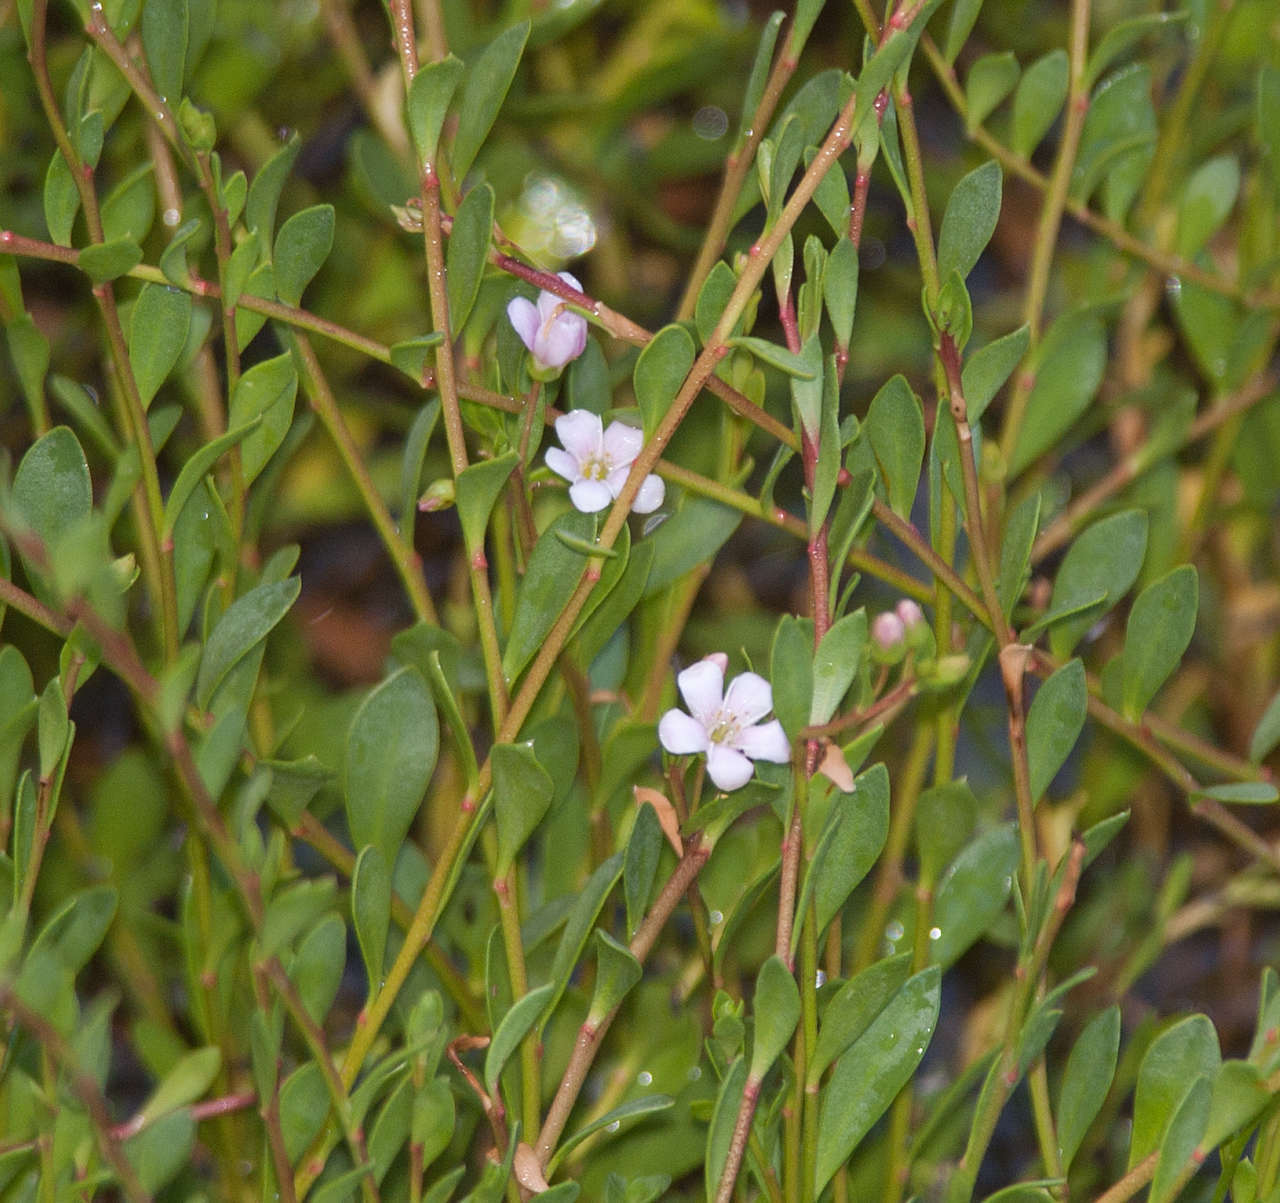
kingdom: Plantae
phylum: Tracheophyta
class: Magnoliopsida
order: Ericales
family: Primulaceae
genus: Samolus
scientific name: Samolus repens
